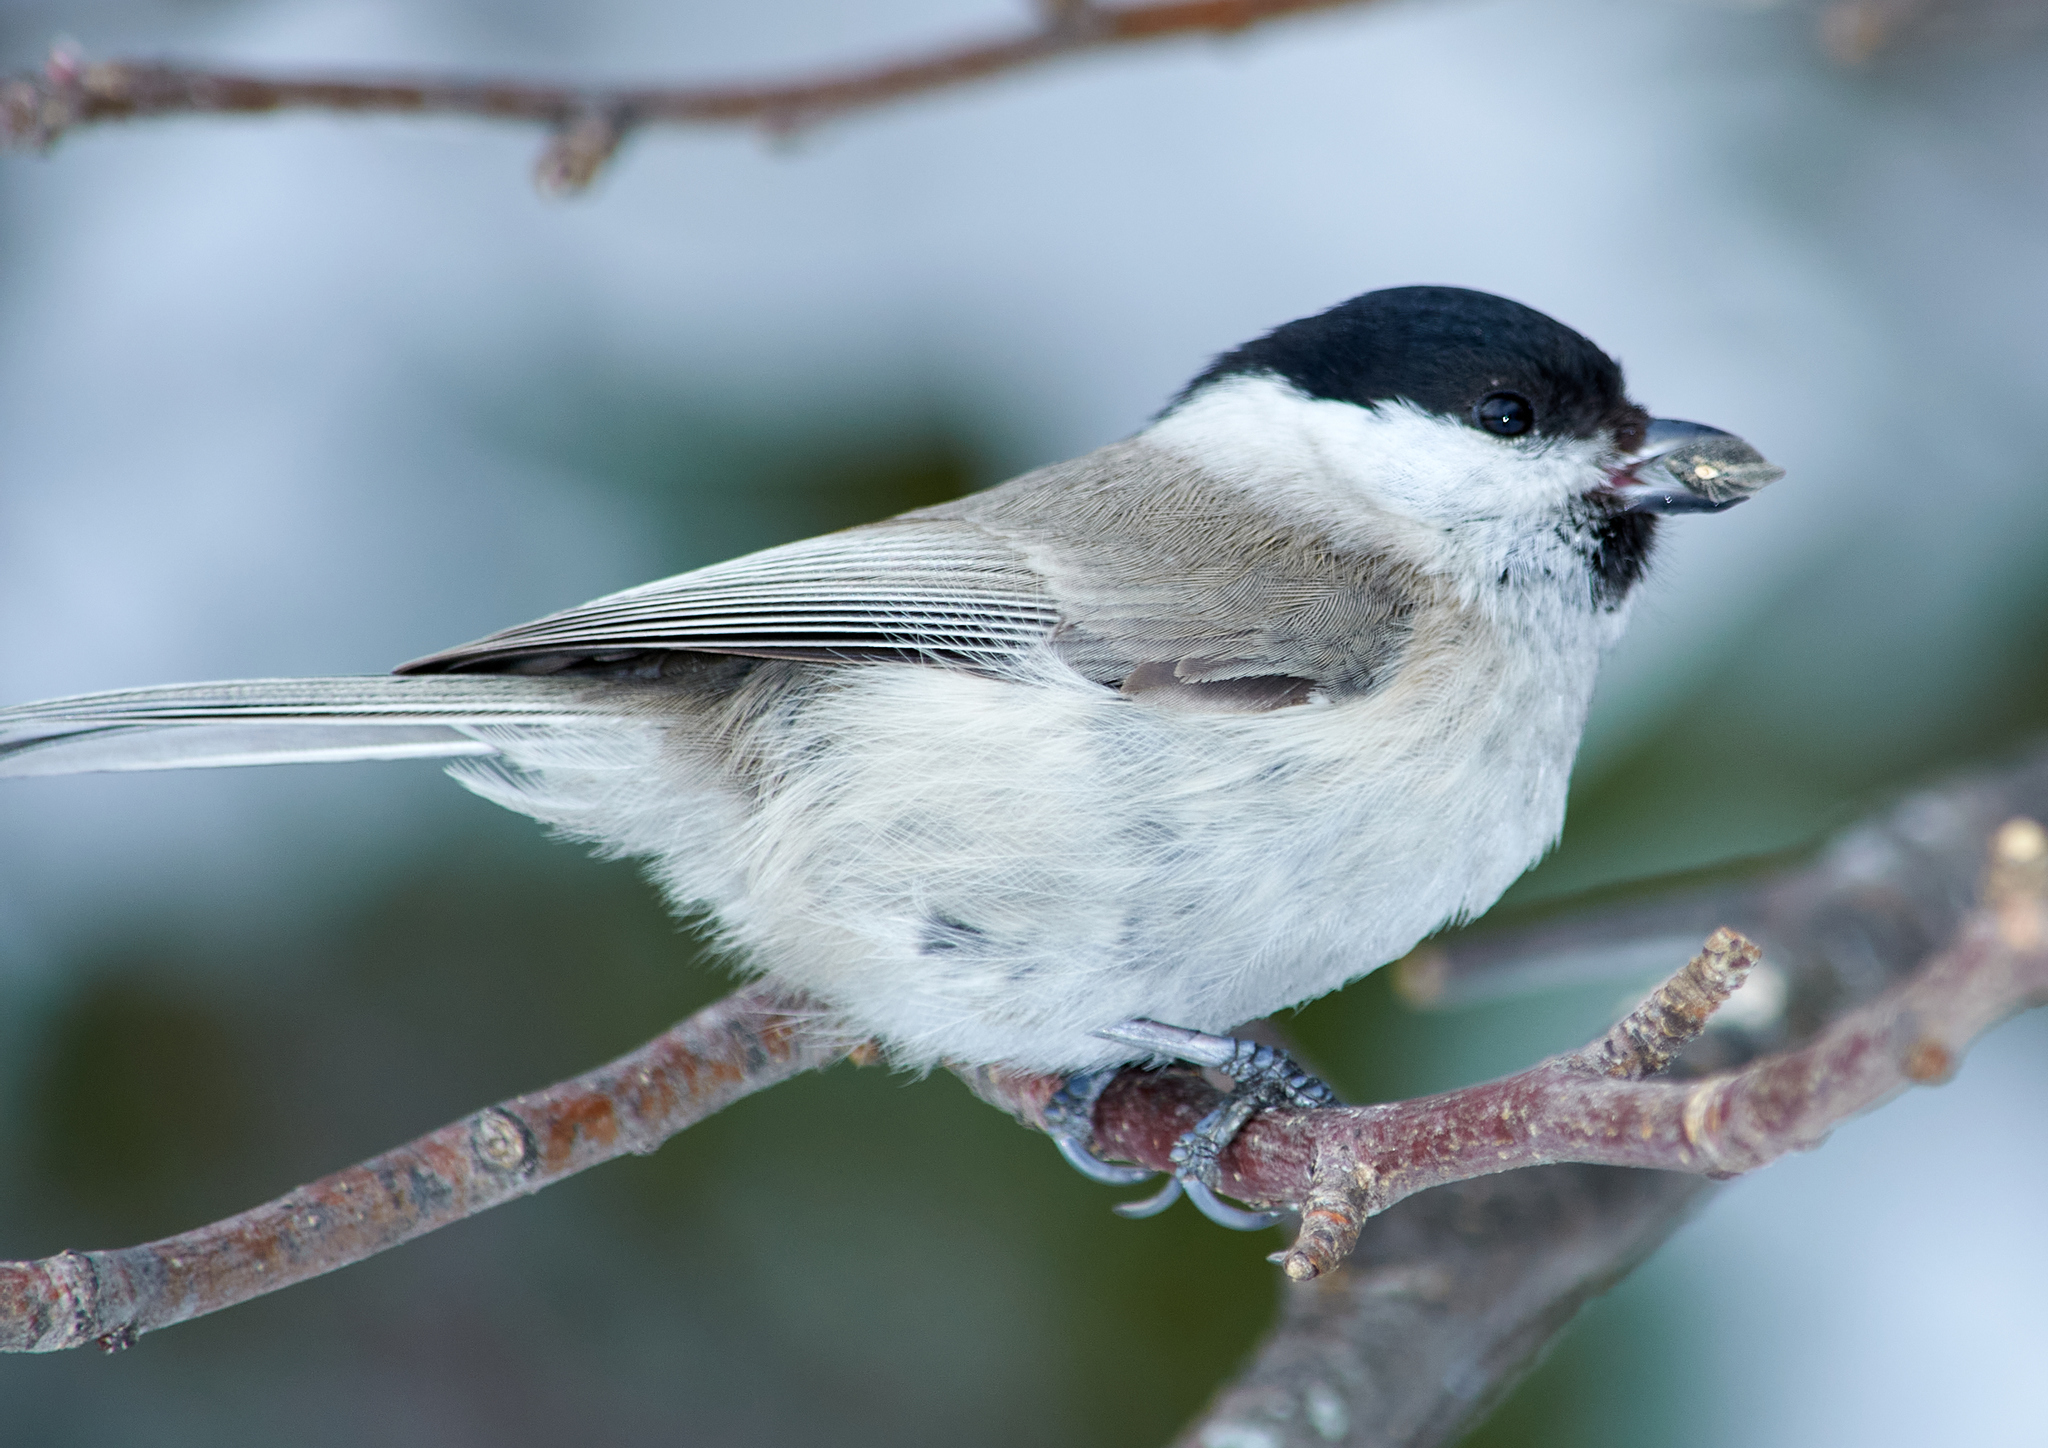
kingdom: Animalia
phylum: Chordata
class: Aves
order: Passeriformes
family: Paridae
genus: Poecile
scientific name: Poecile palustris
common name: Marsh tit
